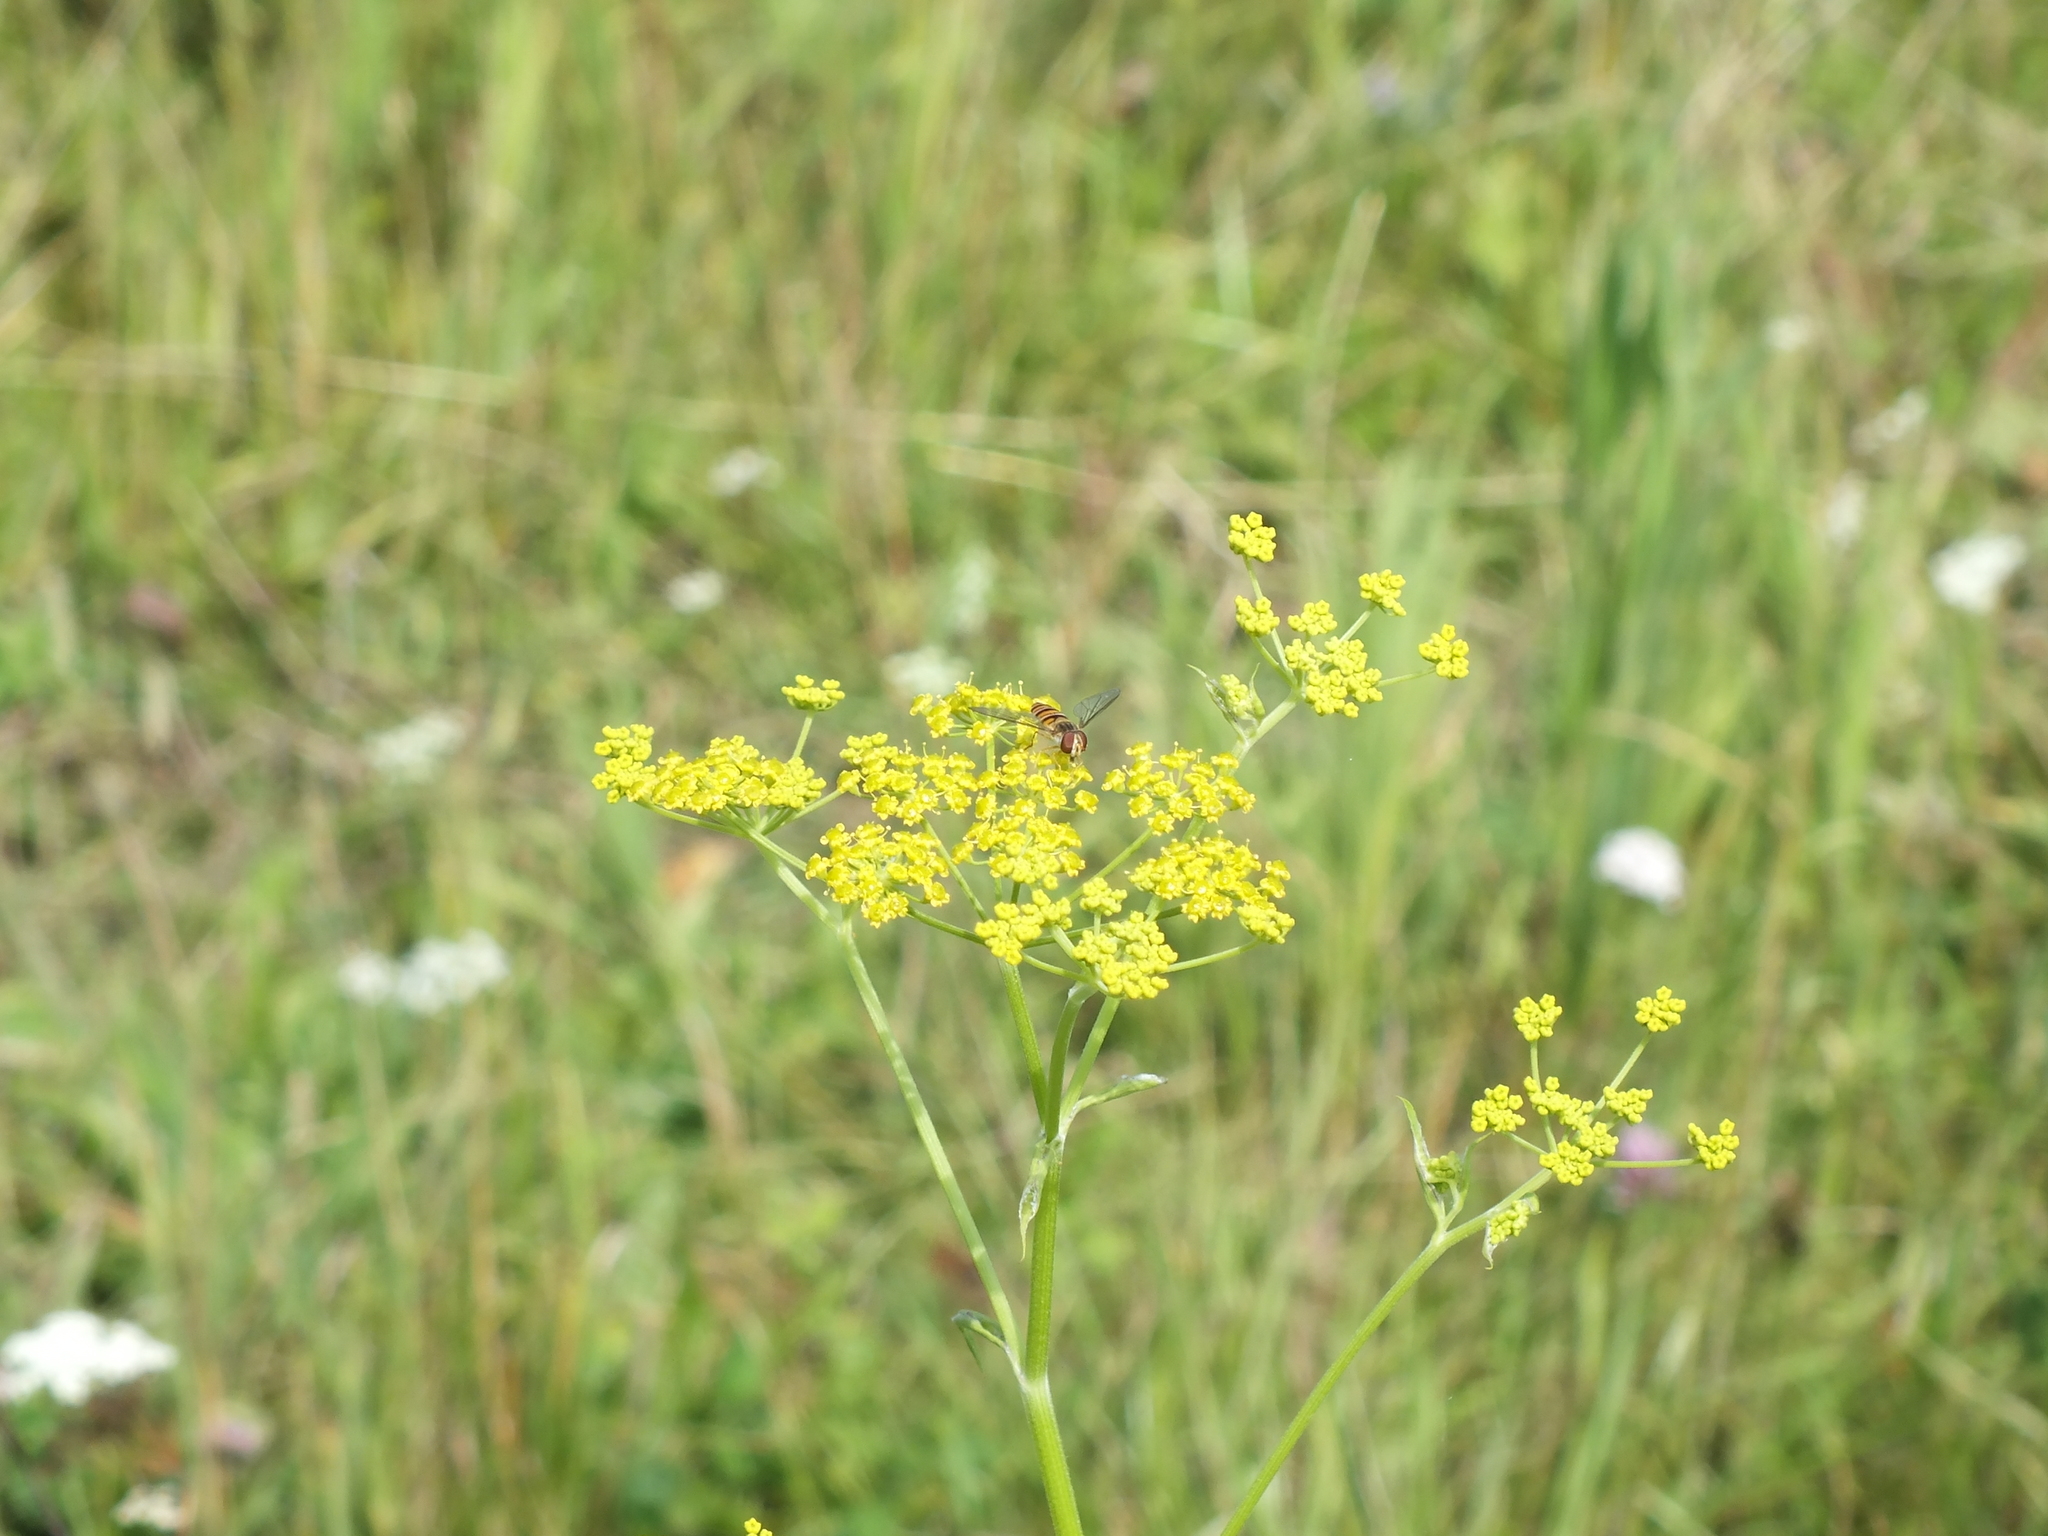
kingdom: Plantae
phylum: Tracheophyta
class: Magnoliopsida
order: Apiales
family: Apiaceae
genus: Pastinaca
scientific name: Pastinaca sativa
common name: Wild parsnip
